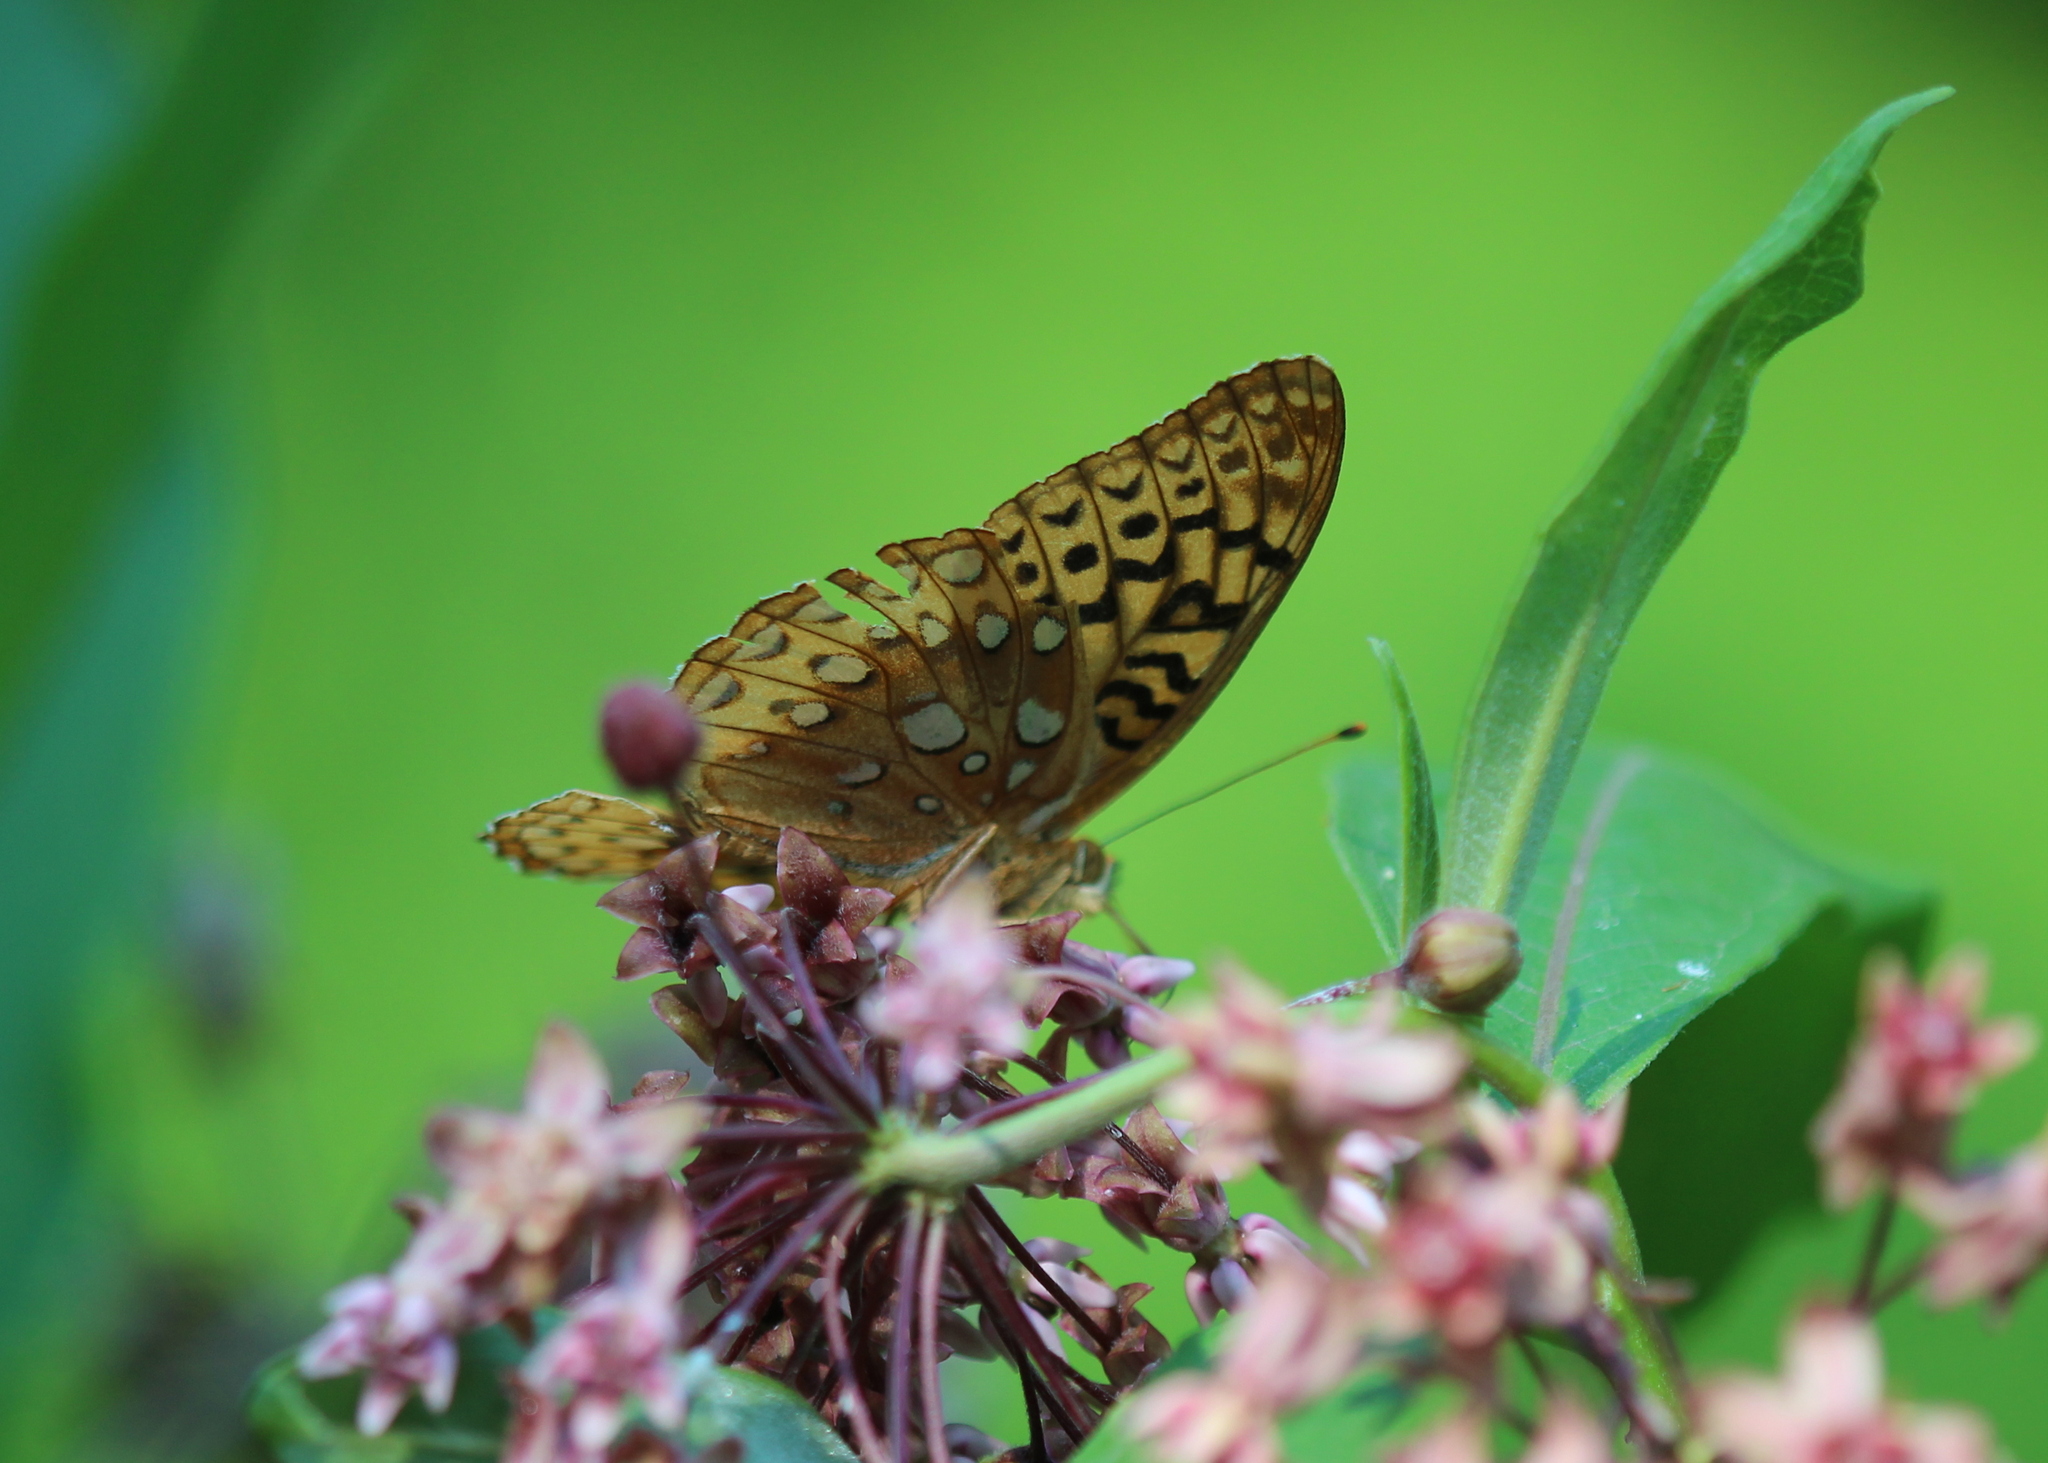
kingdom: Animalia
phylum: Arthropoda
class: Insecta
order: Lepidoptera
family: Nymphalidae
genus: Speyeria
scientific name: Speyeria cybele
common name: Great spangled fritillary
